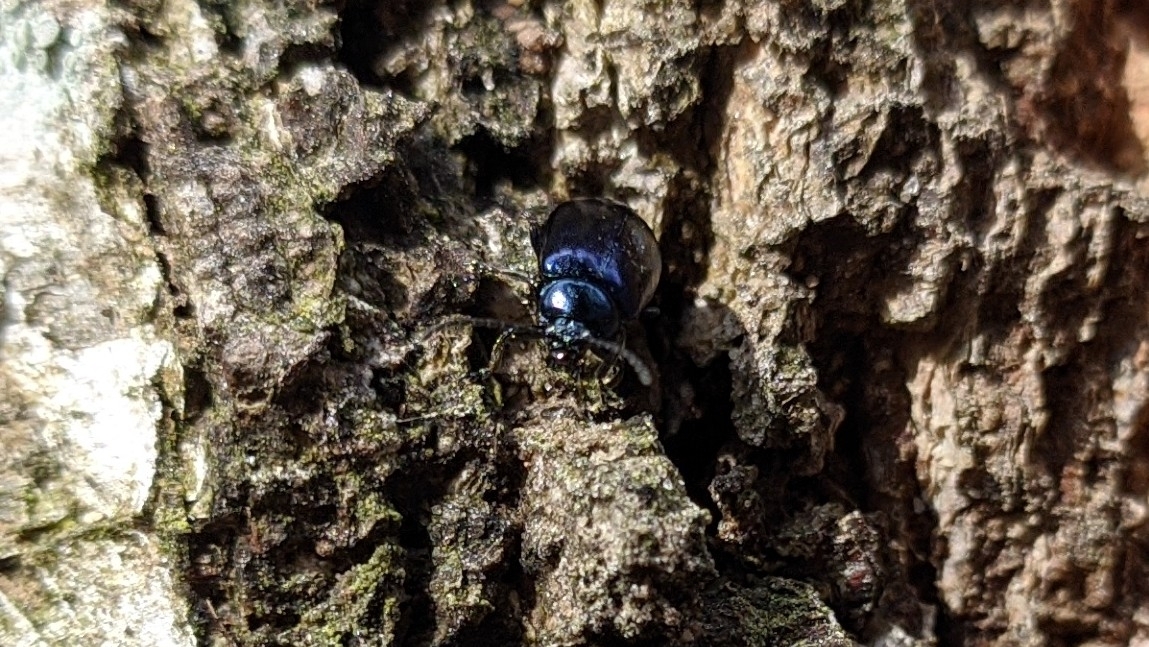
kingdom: Animalia
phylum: Arthropoda
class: Insecta
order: Coleoptera
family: Chrysomelidae
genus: Agelastica
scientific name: Agelastica alni
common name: Alder leaf beetle
